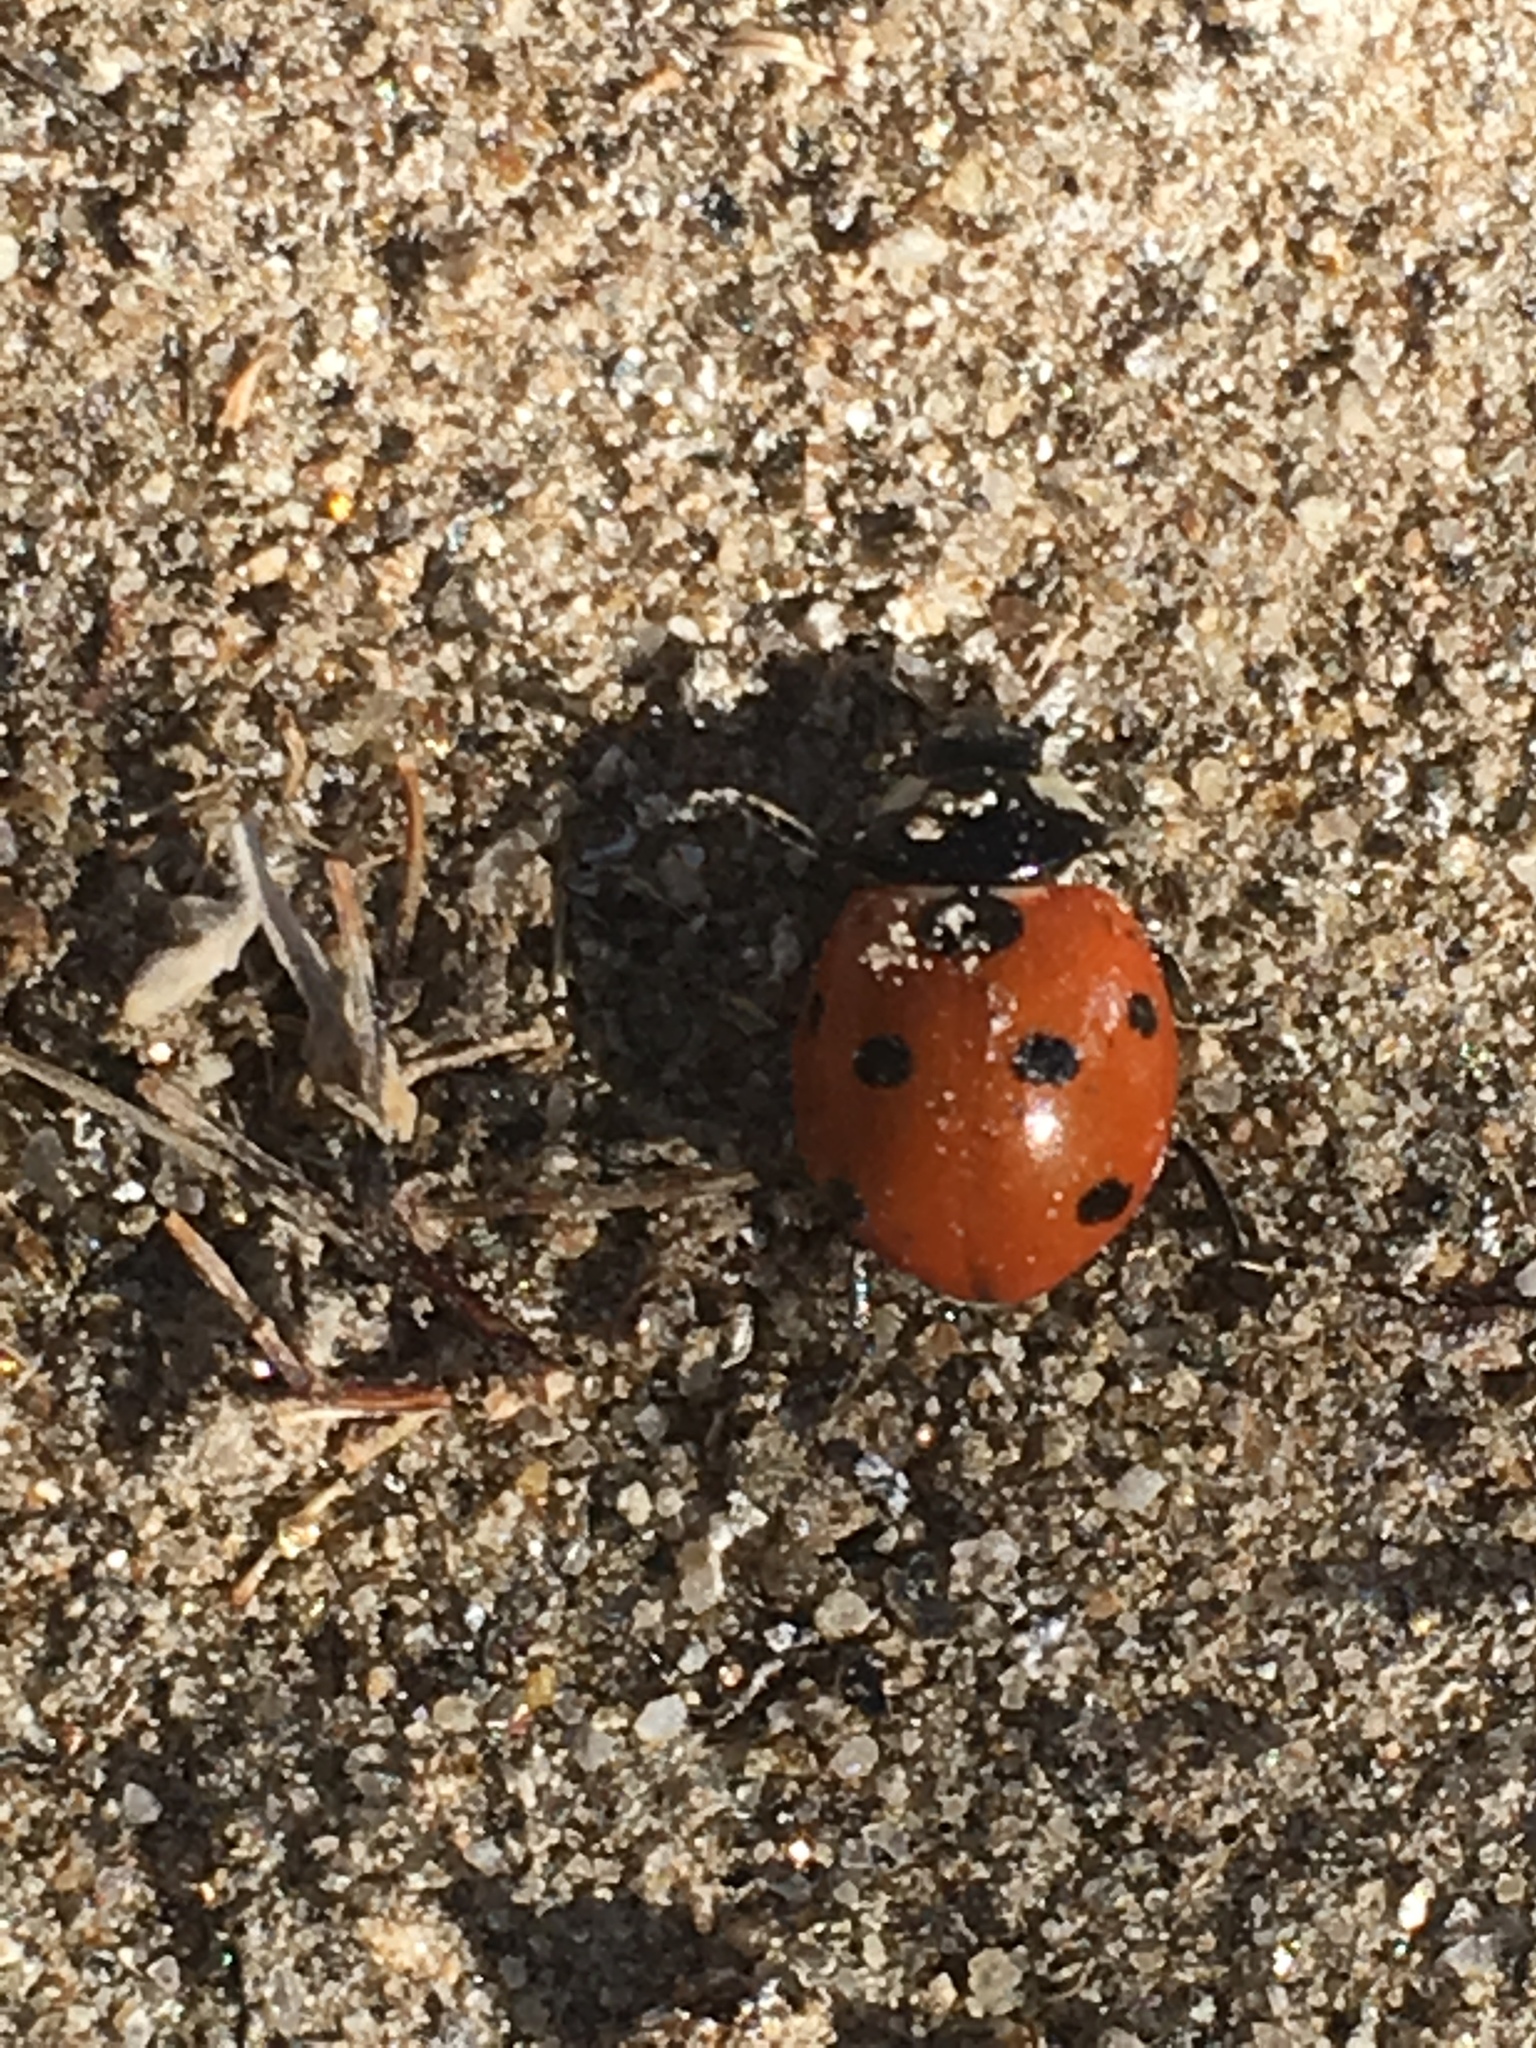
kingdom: Animalia
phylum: Arthropoda
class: Insecta
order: Coleoptera
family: Coccinellidae
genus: Coccinella
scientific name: Coccinella septempunctata
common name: Sevenspotted lady beetle
